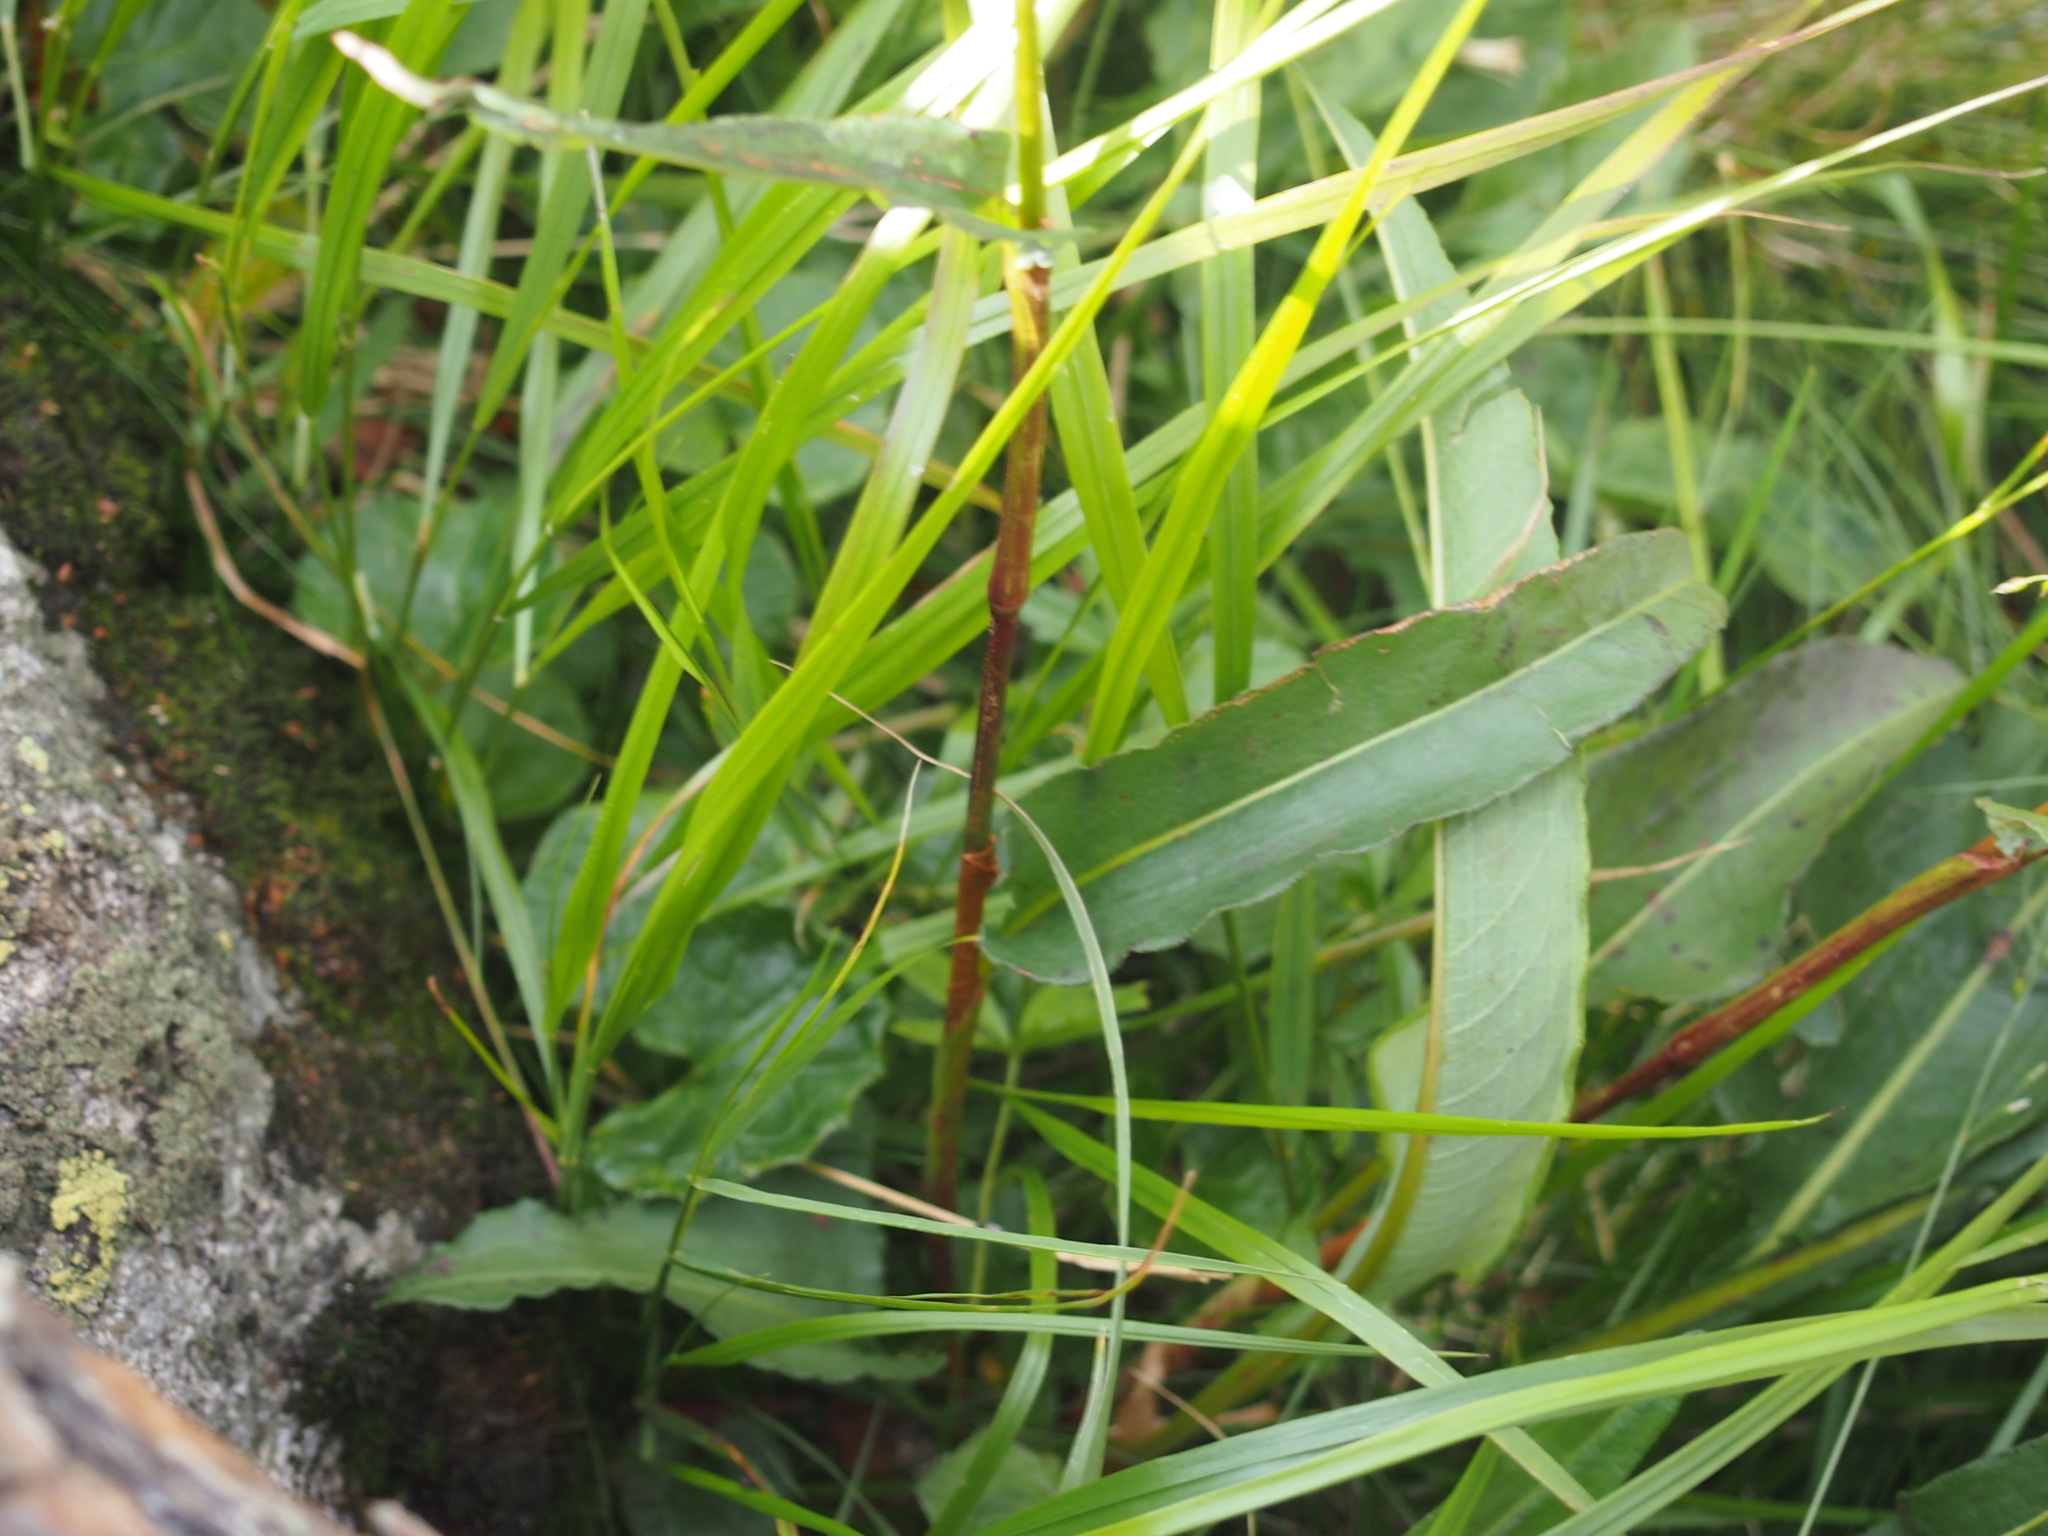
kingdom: Plantae
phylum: Tracheophyta
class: Magnoliopsida
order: Caryophyllales
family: Polygonaceae
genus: Bistorta
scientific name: Bistorta officinalis
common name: Common bistort
